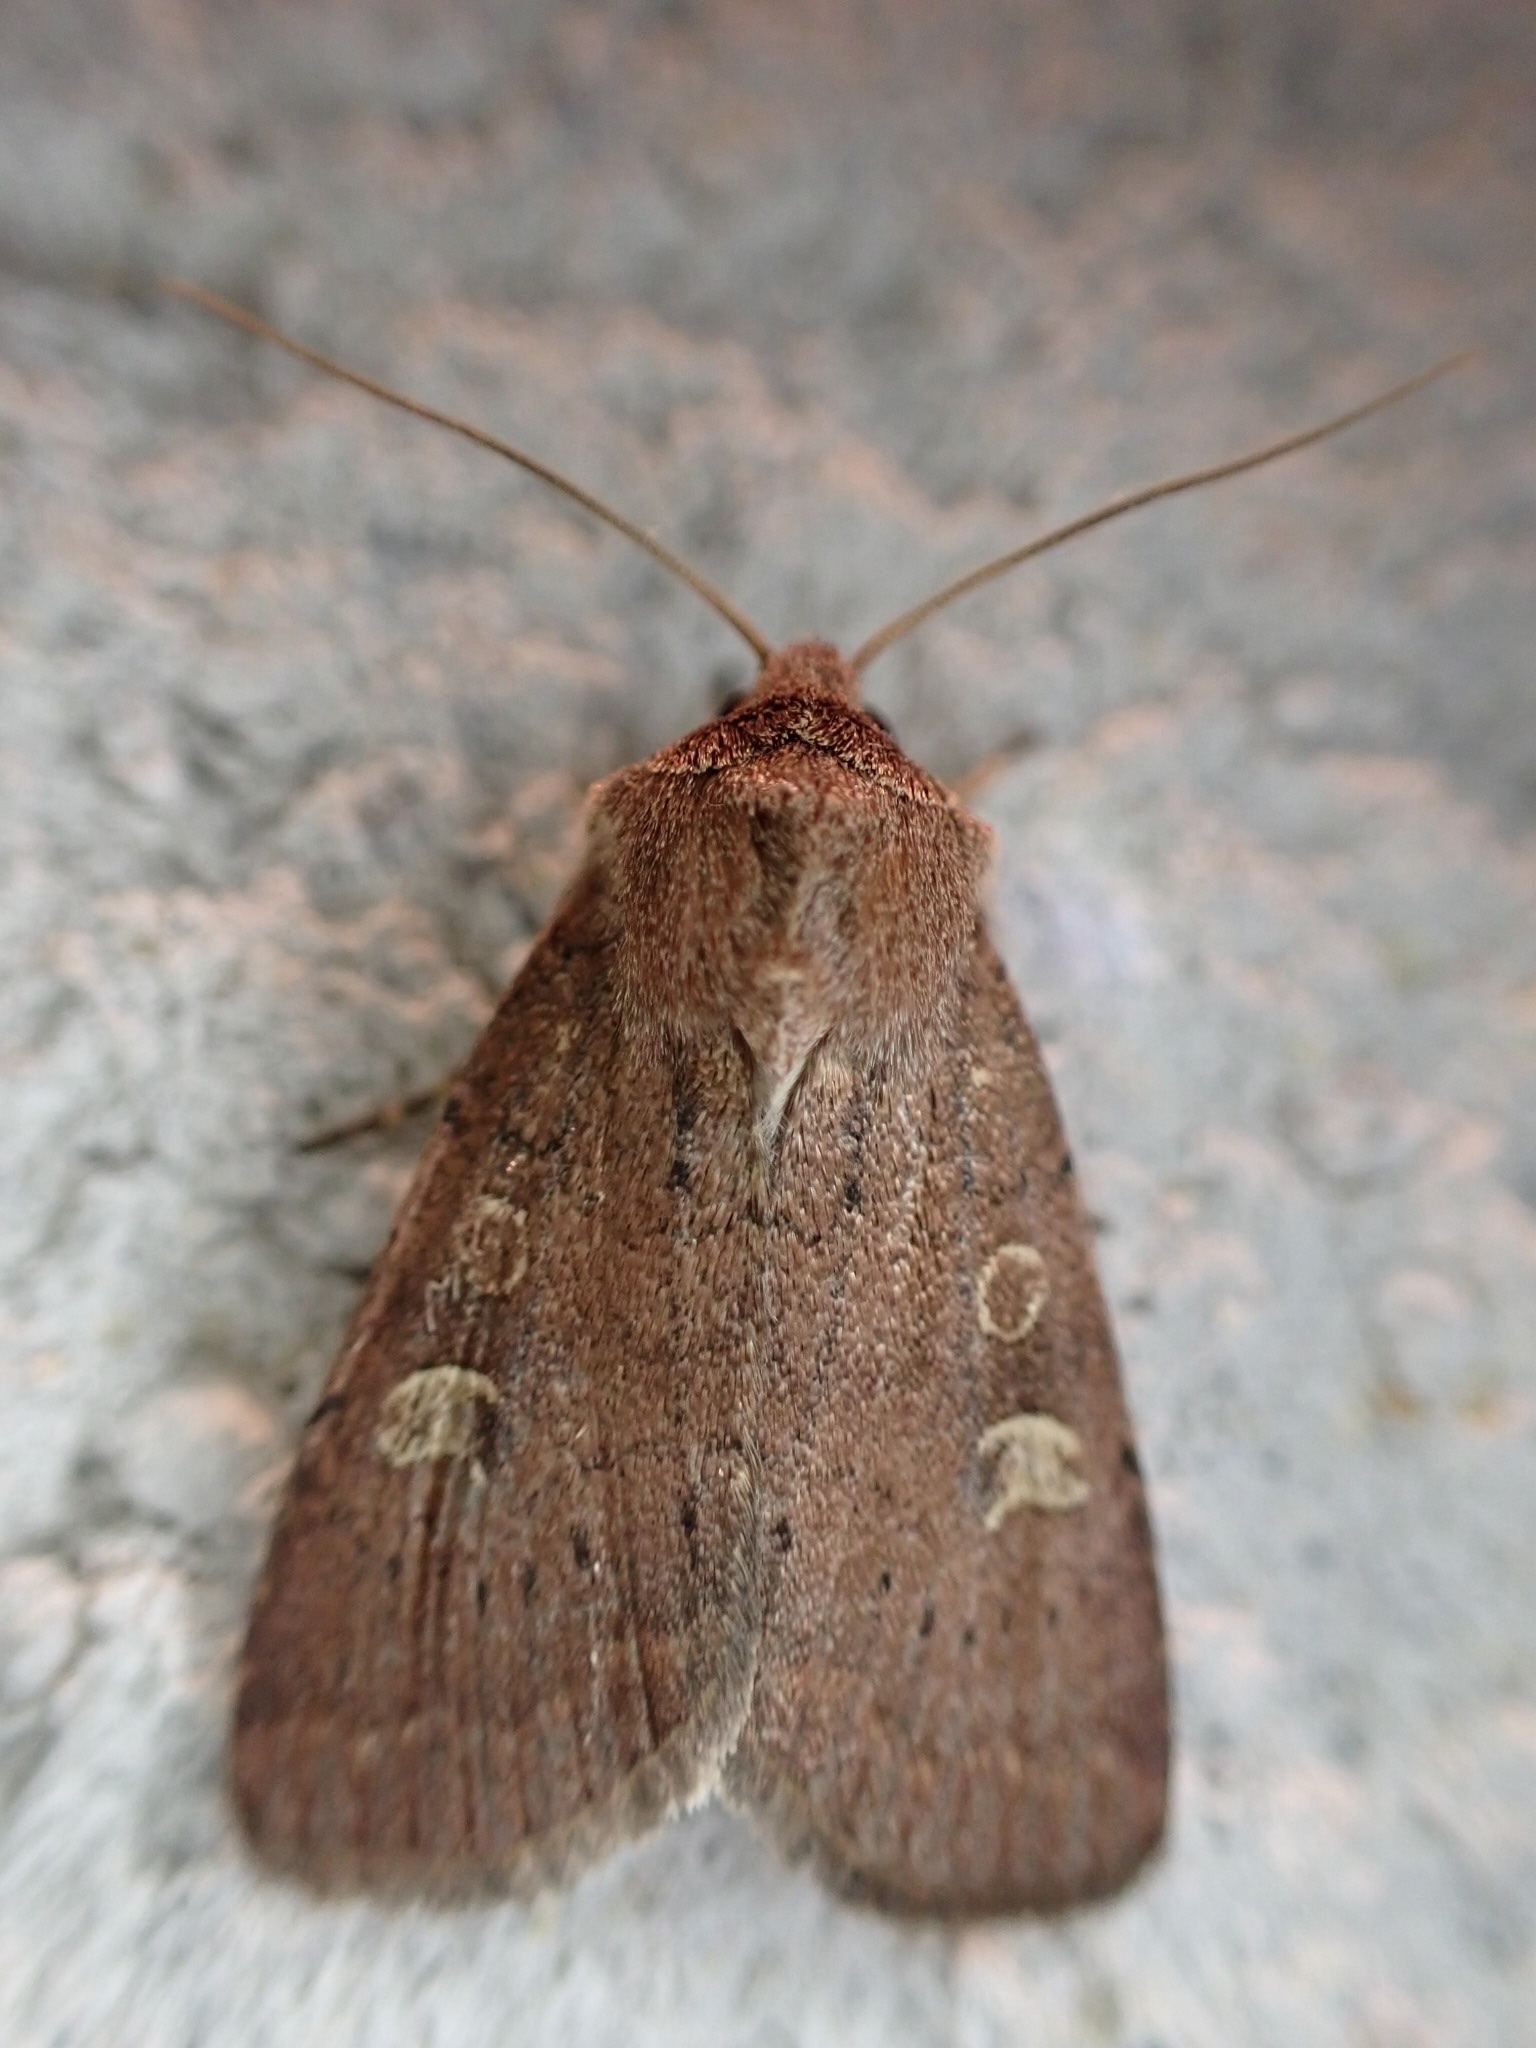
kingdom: Animalia
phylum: Arthropoda
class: Insecta
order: Lepidoptera
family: Noctuidae
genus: Xestia
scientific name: Xestia xanthographa
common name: Square-spot rustic
